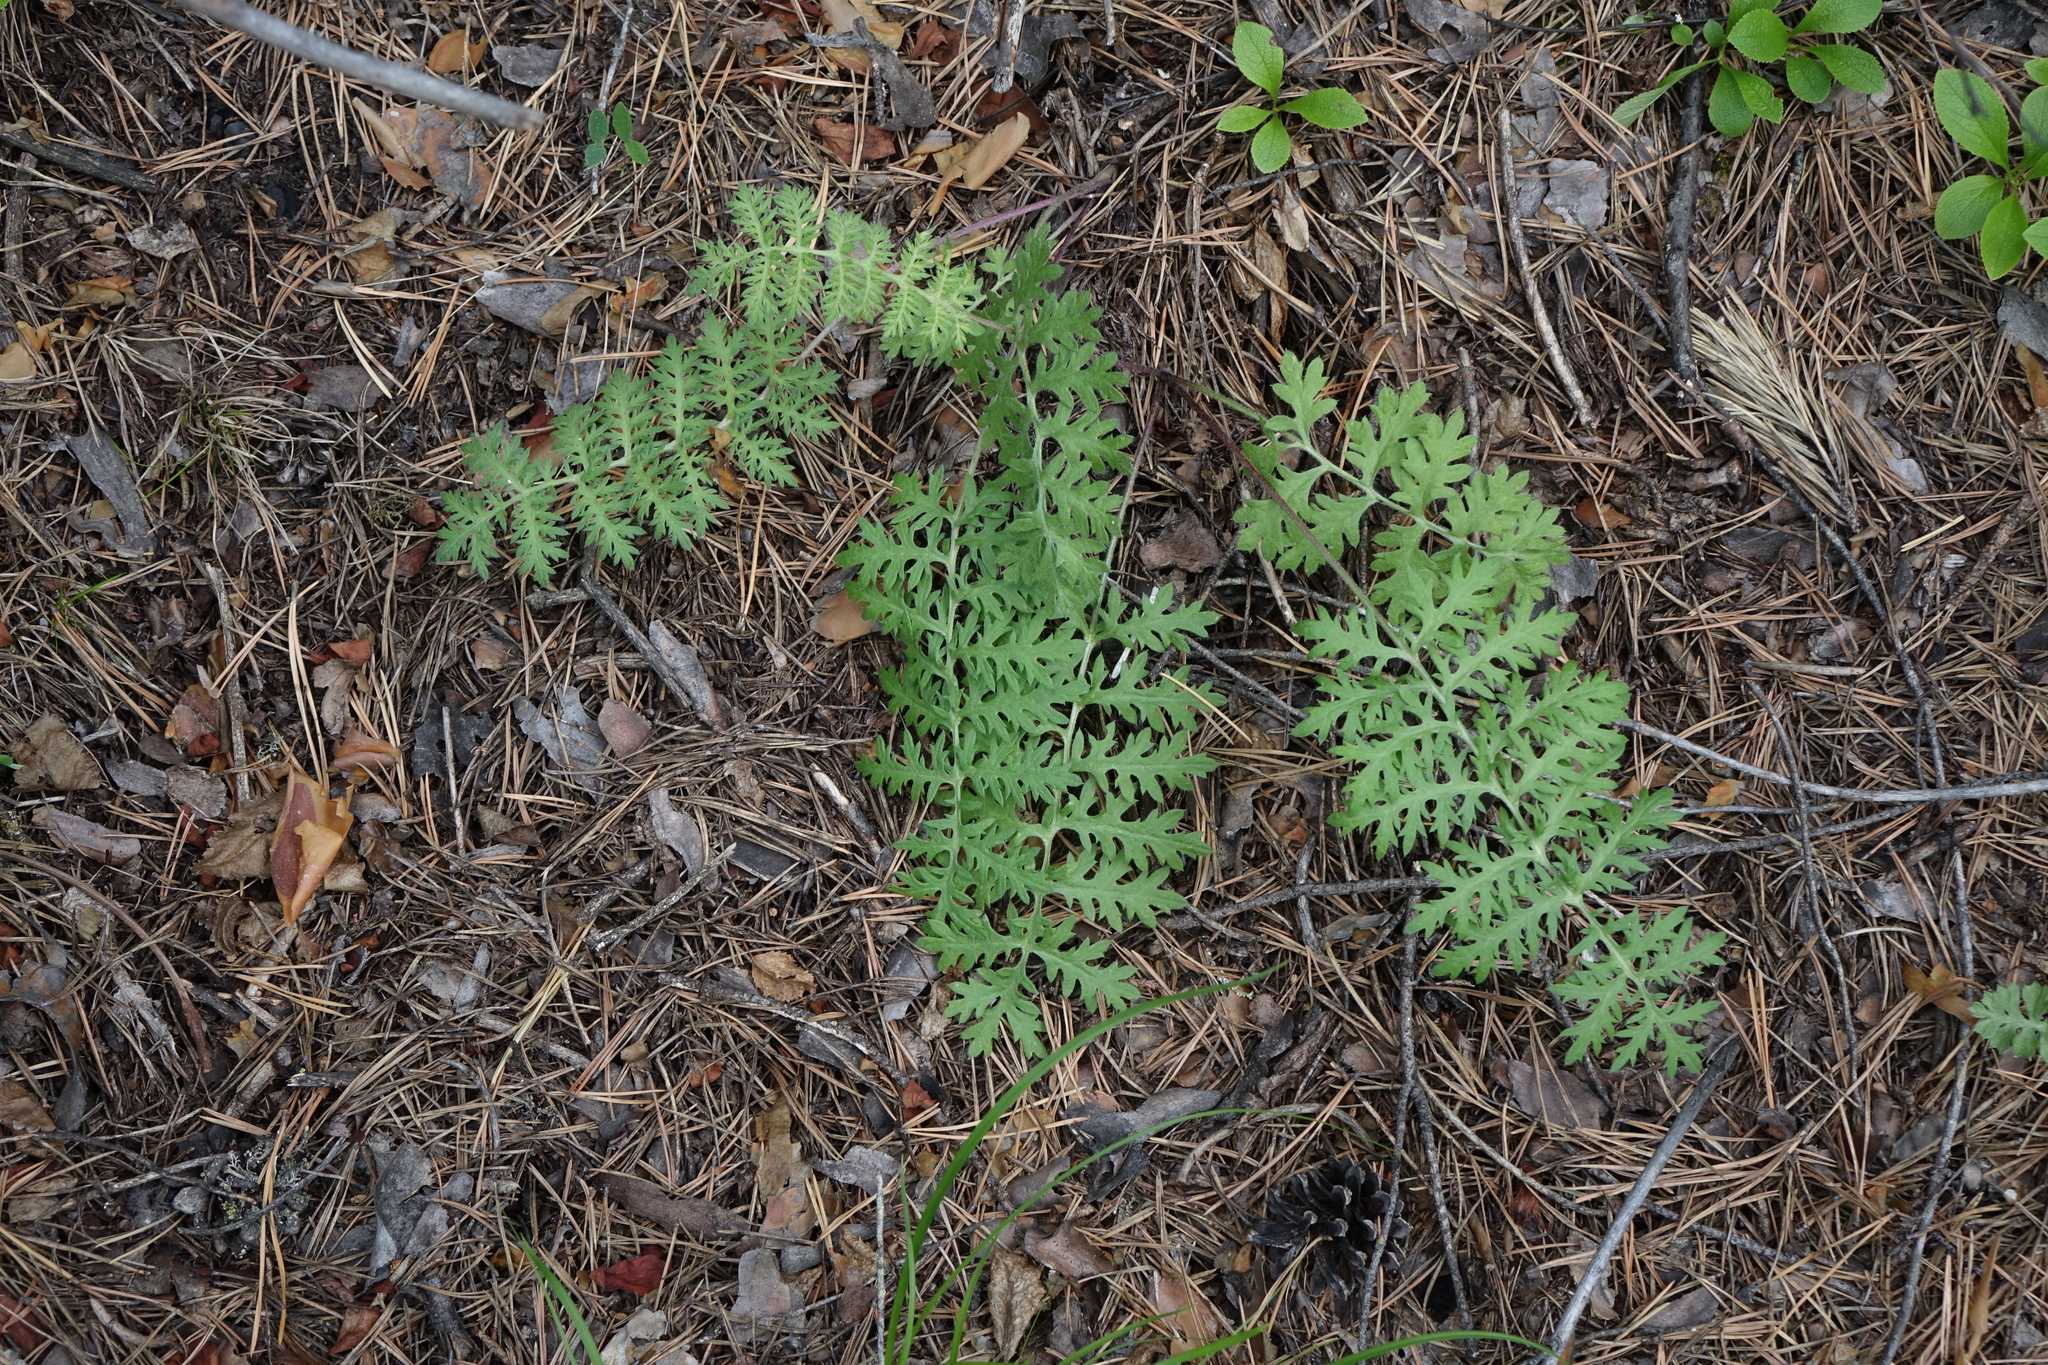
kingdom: Plantae
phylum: Tracheophyta
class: Magnoliopsida
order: Asterales
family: Asteraceae
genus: Artemisia
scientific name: Artemisia laciniata
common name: Siberian wormwood
